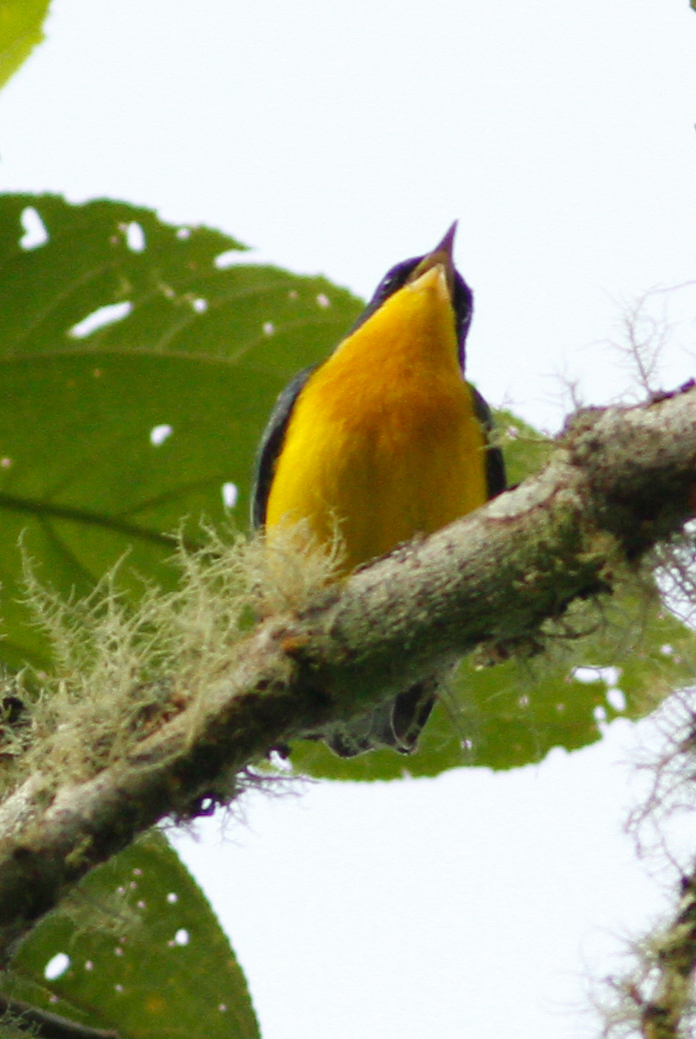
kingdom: Animalia
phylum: Chordata
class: Aves
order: Passeriformes
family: Parulidae
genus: Setophaga
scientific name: Setophaga pitiayumi
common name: Tropical parula
